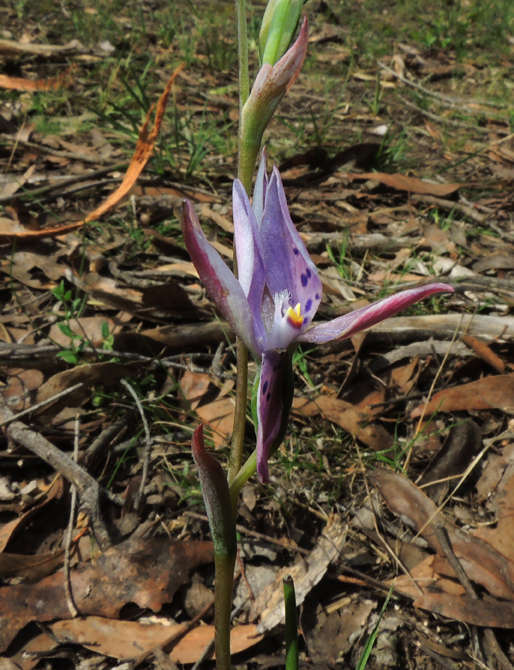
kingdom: Plantae
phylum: Tracheophyta
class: Liliopsida
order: Asparagales
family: Orchidaceae
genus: Thelymitra
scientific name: Thelymitra hiemalis
